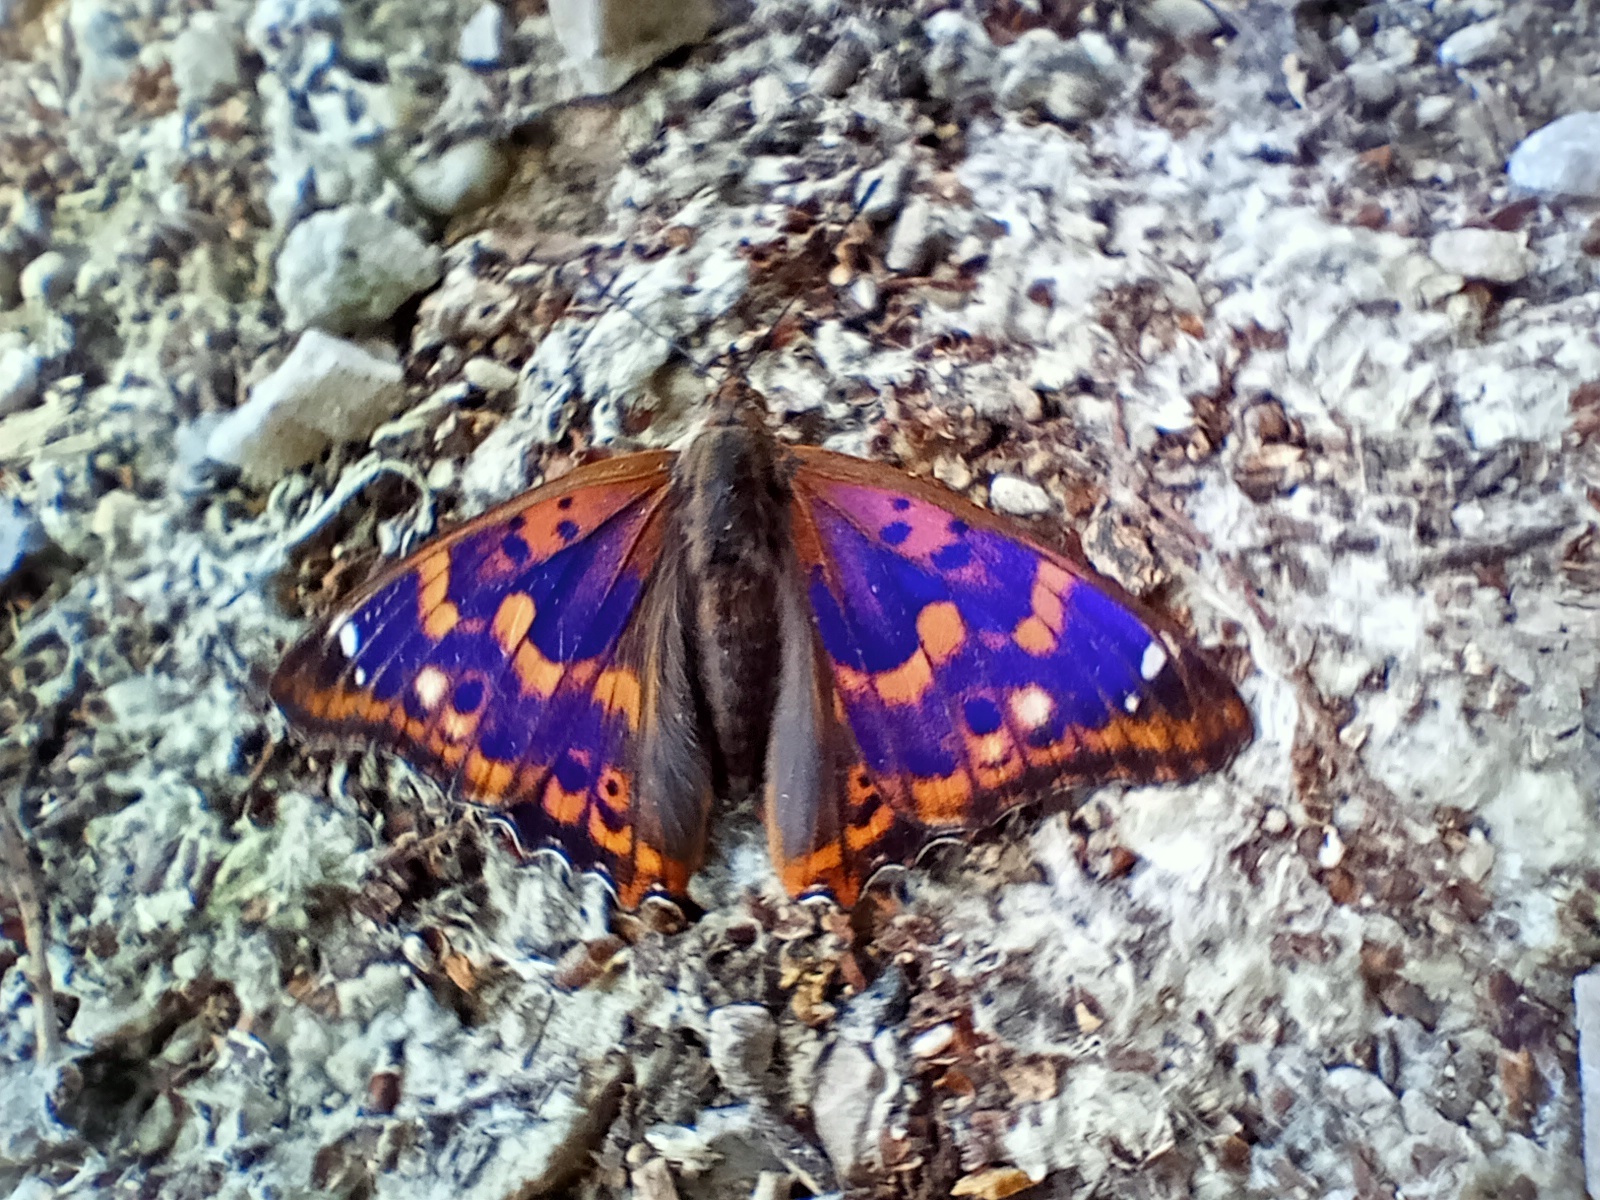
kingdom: Animalia
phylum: Arthropoda
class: Insecta
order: Lepidoptera
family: Nymphalidae
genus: Apatura
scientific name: Apatura ilia
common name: Lesser purple emperor
